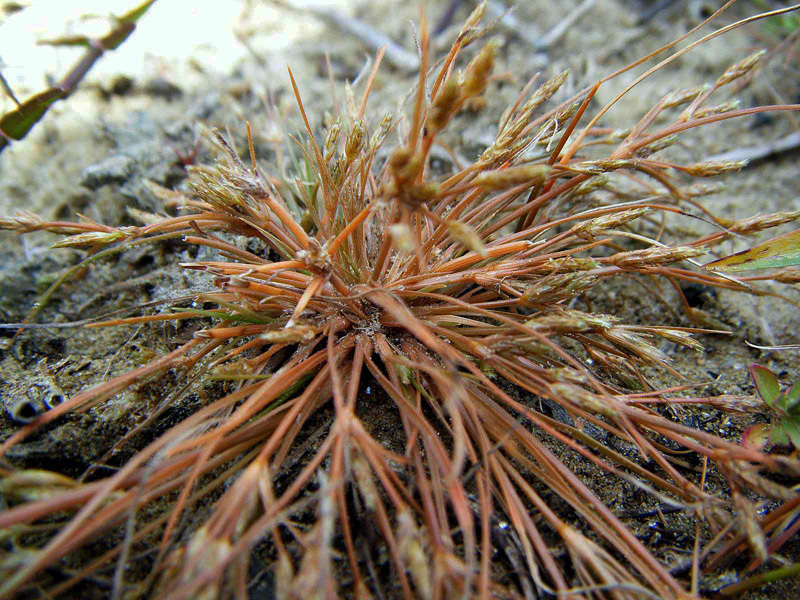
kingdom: Plantae
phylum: Tracheophyta
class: Liliopsida
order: Poales
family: Cyperaceae
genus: Fimbristylis
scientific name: Fimbristylis velata
